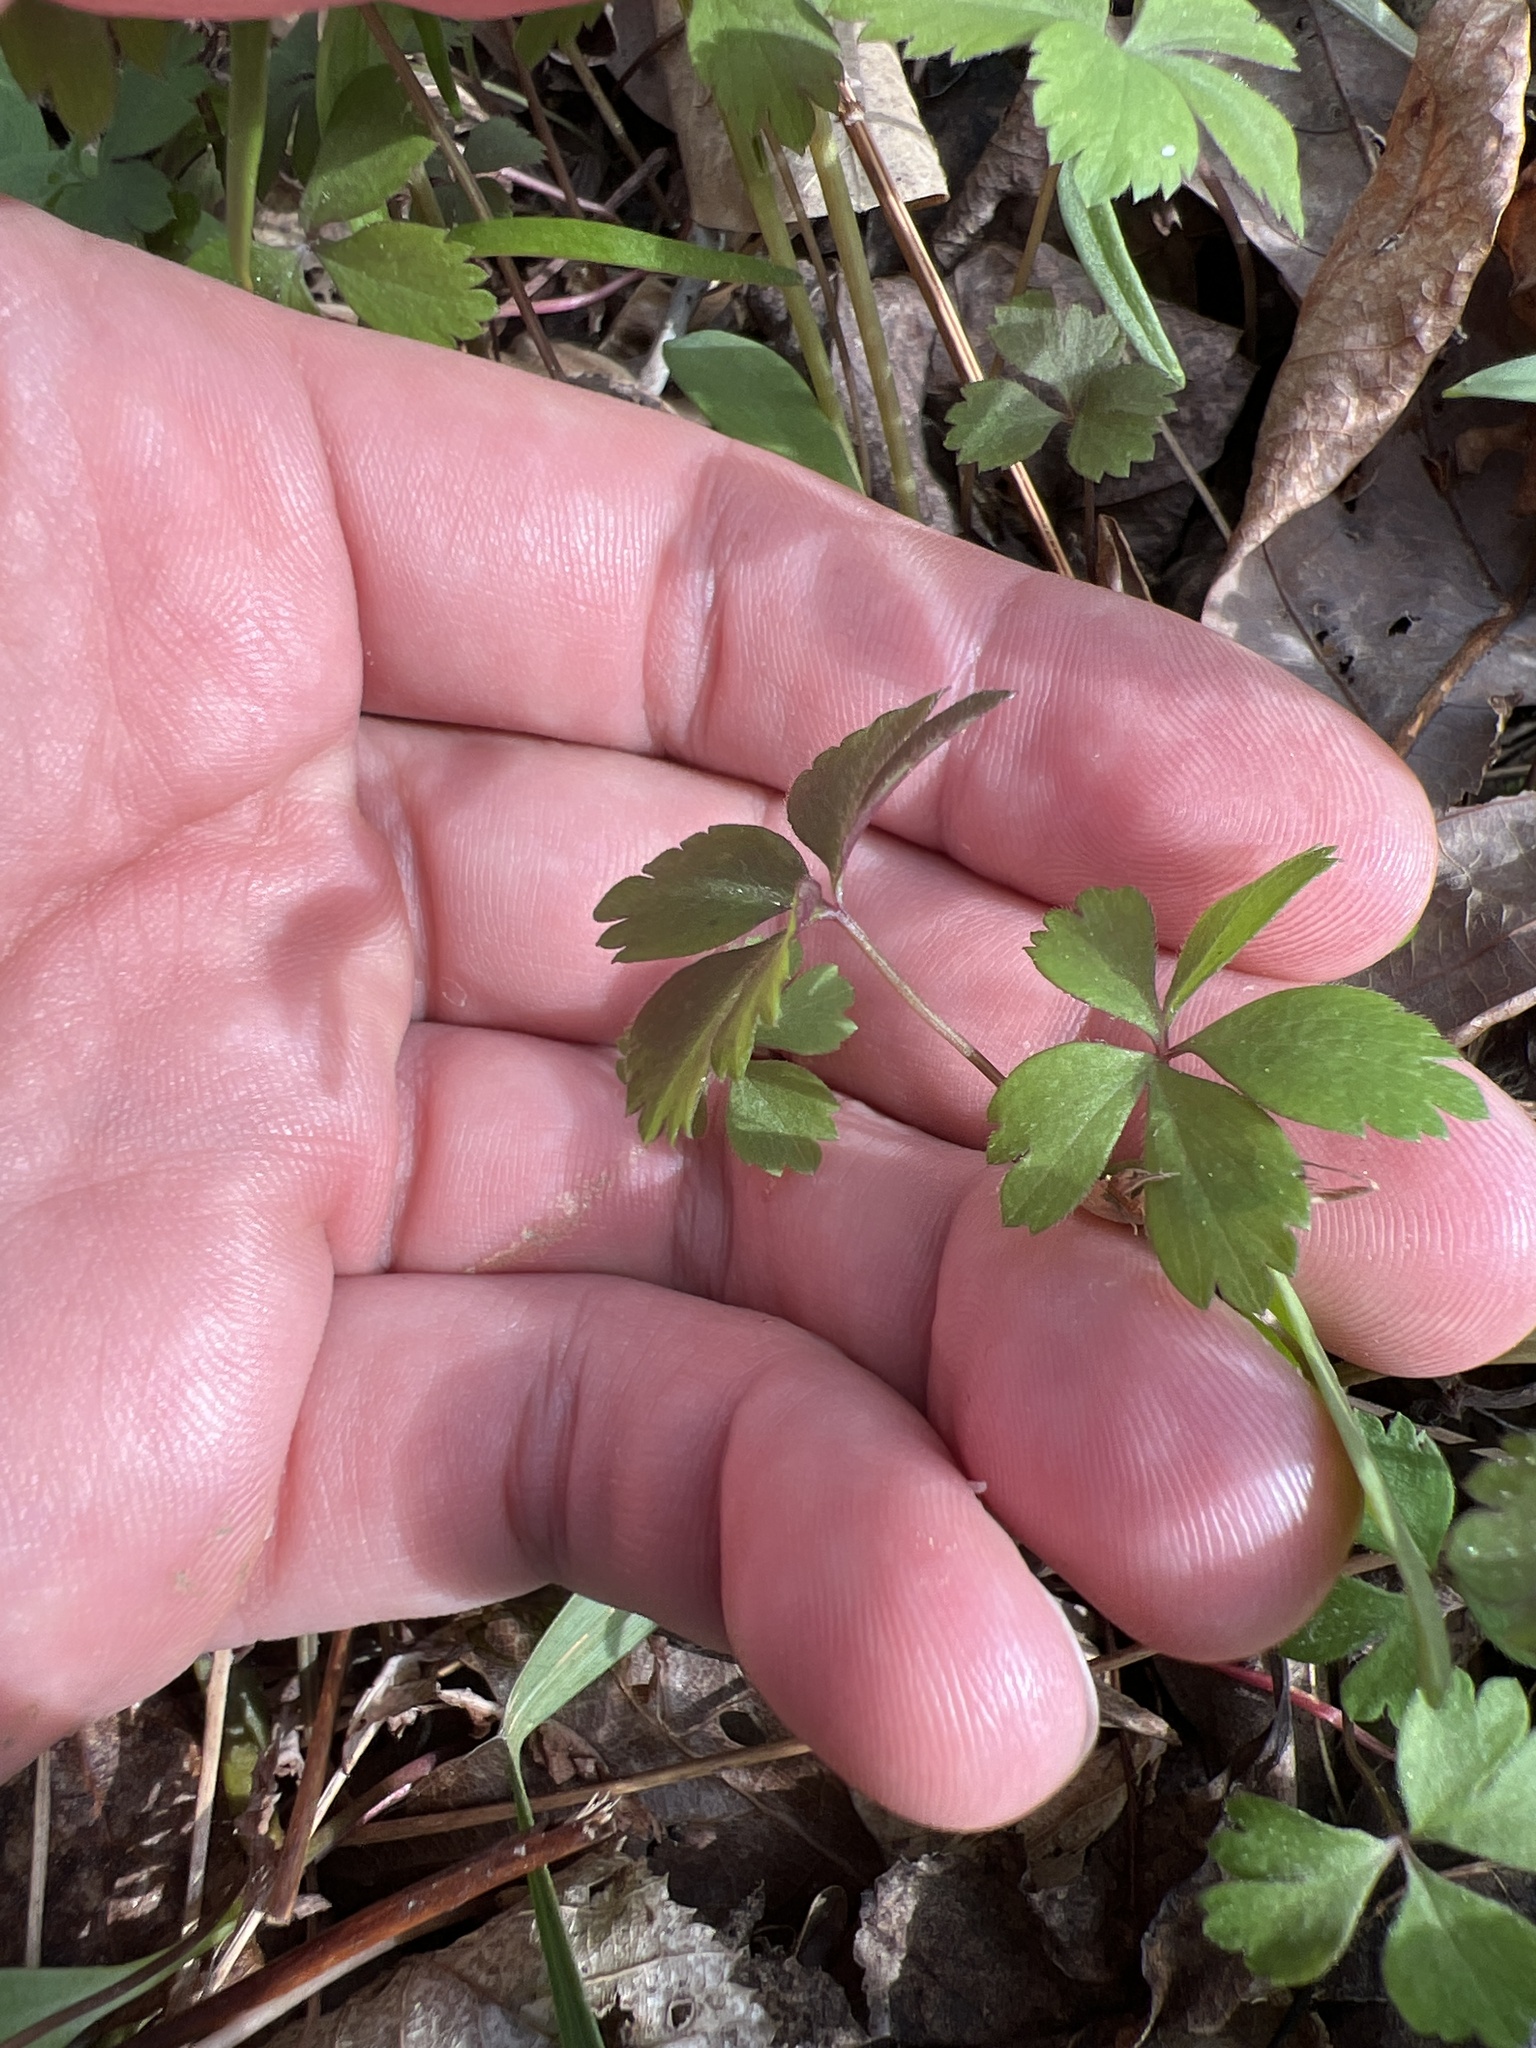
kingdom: Plantae
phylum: Tracheophyta
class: Magnoliopsida
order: Ranunculales
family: Ranunculaceae
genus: Anemone
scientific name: Anemone quinquefolia
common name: Wood anemone
